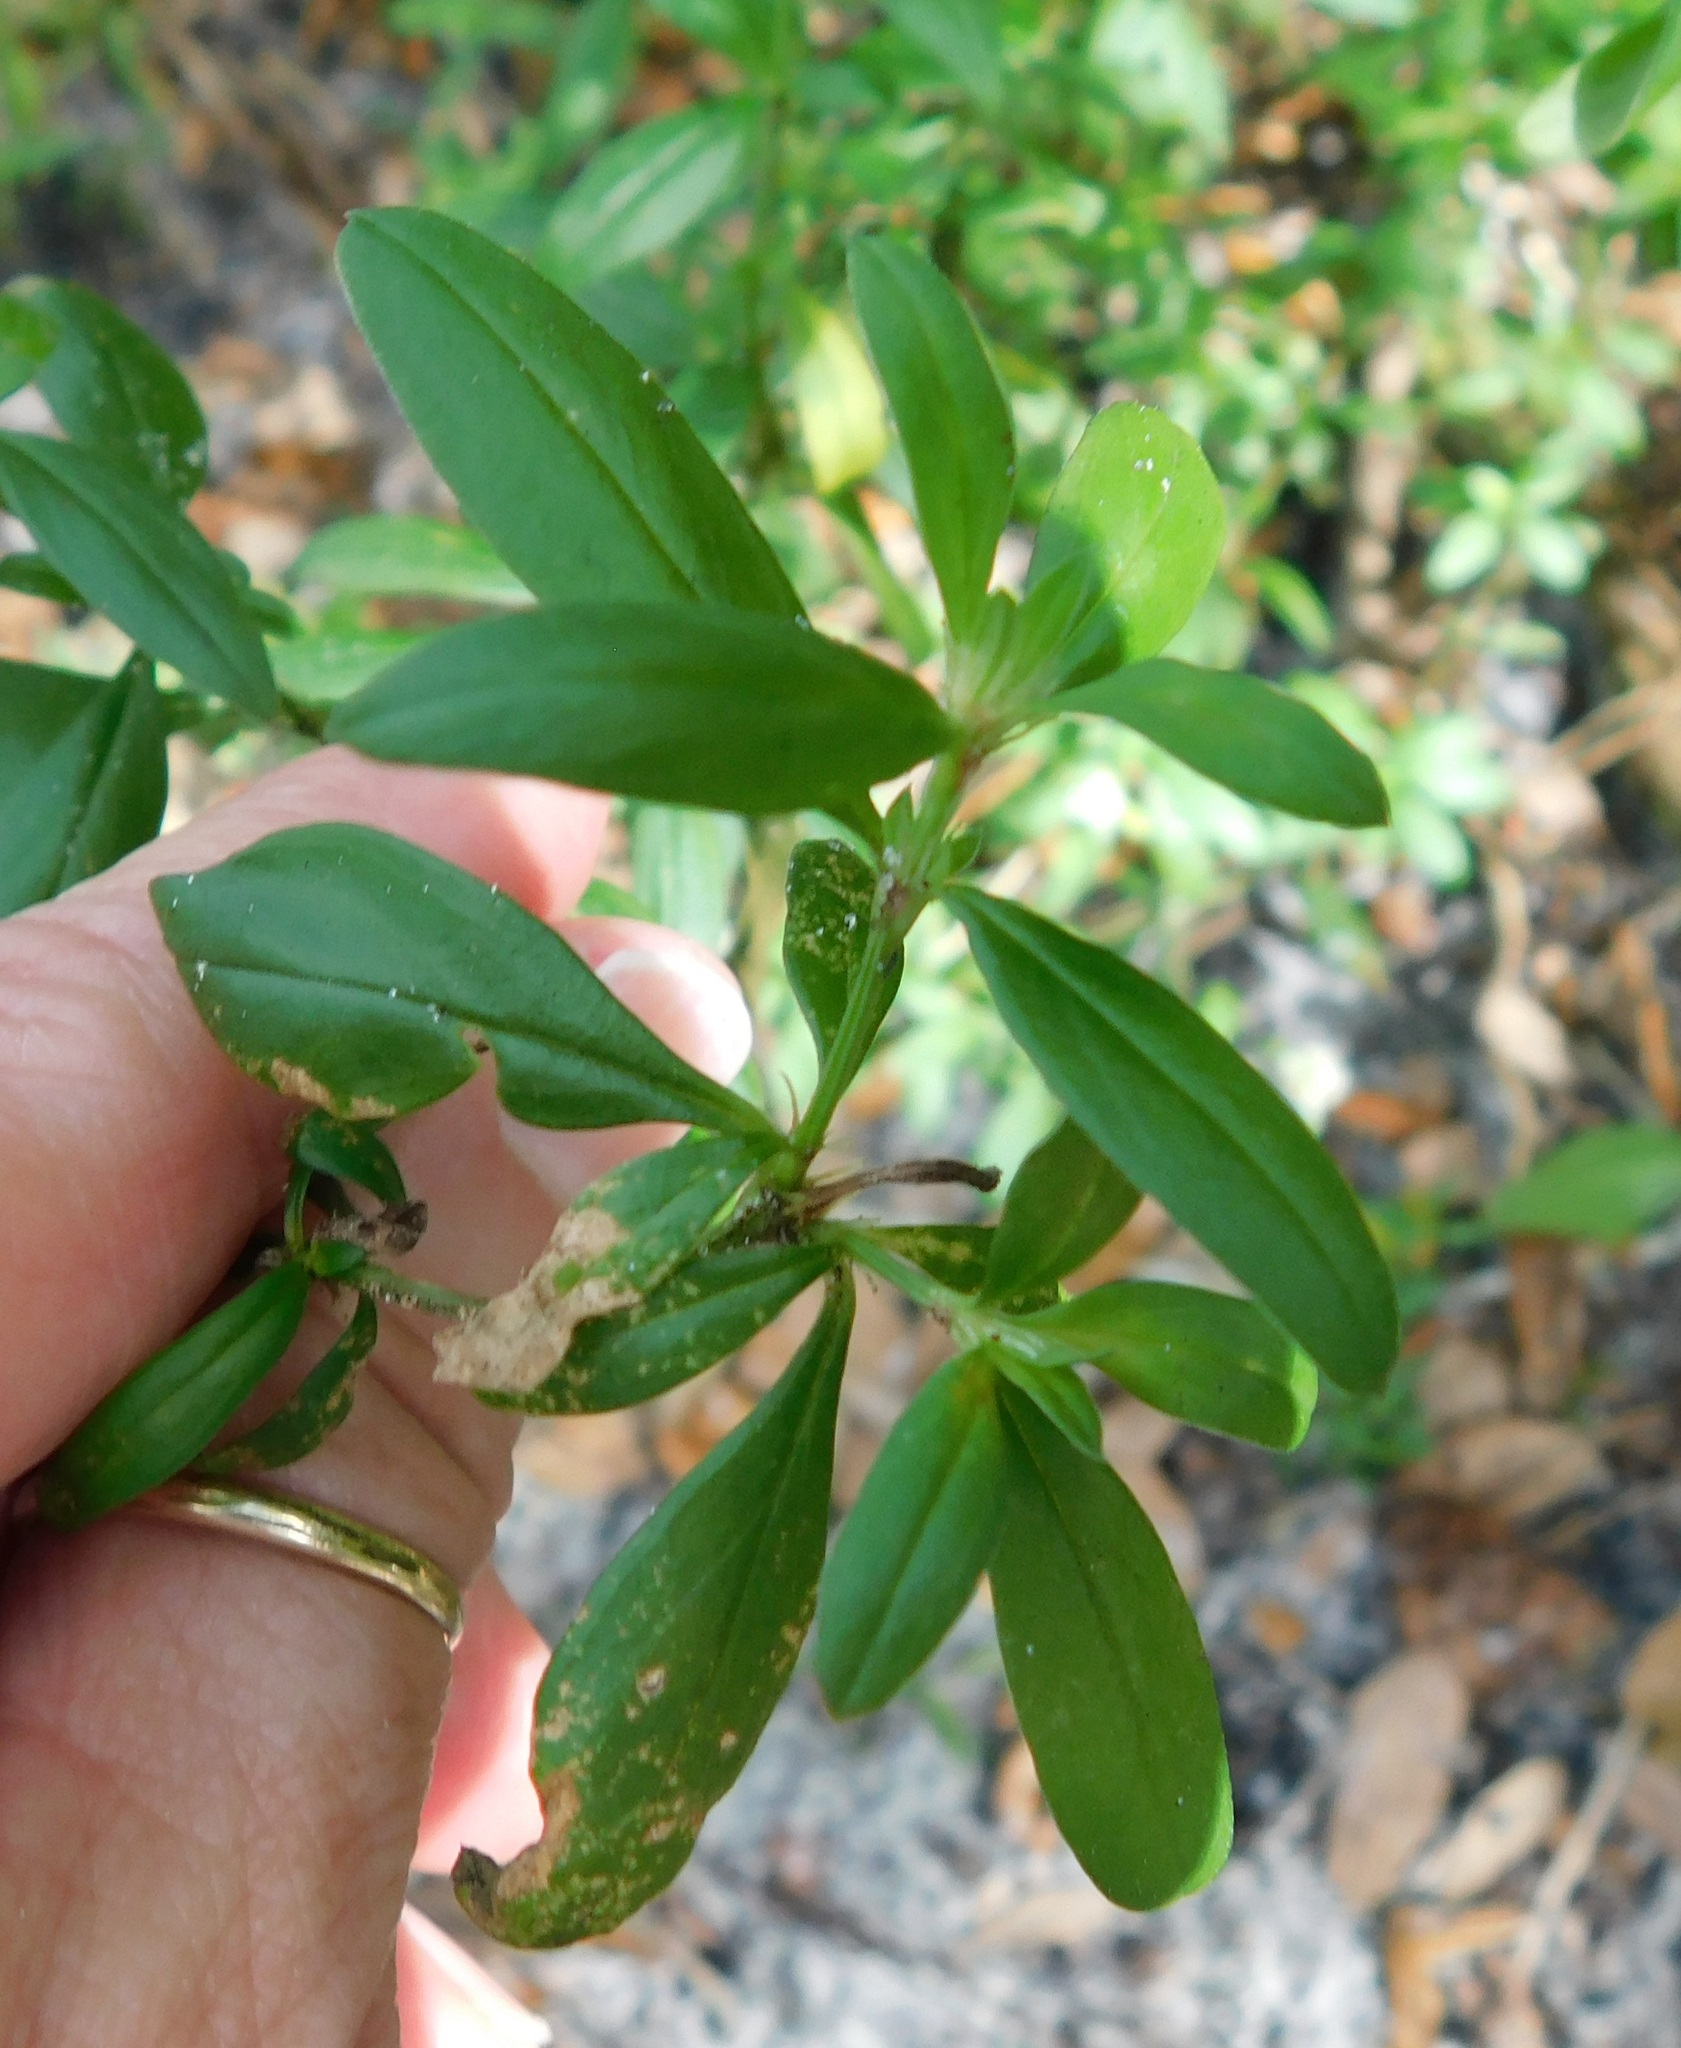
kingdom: Plantae
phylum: Tracheophyta
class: Magnoliopsida
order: Gentianales
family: Rubiaceae
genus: Spermacoce
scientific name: Spermacoce verticillata
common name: Shrubby false buttonweed
